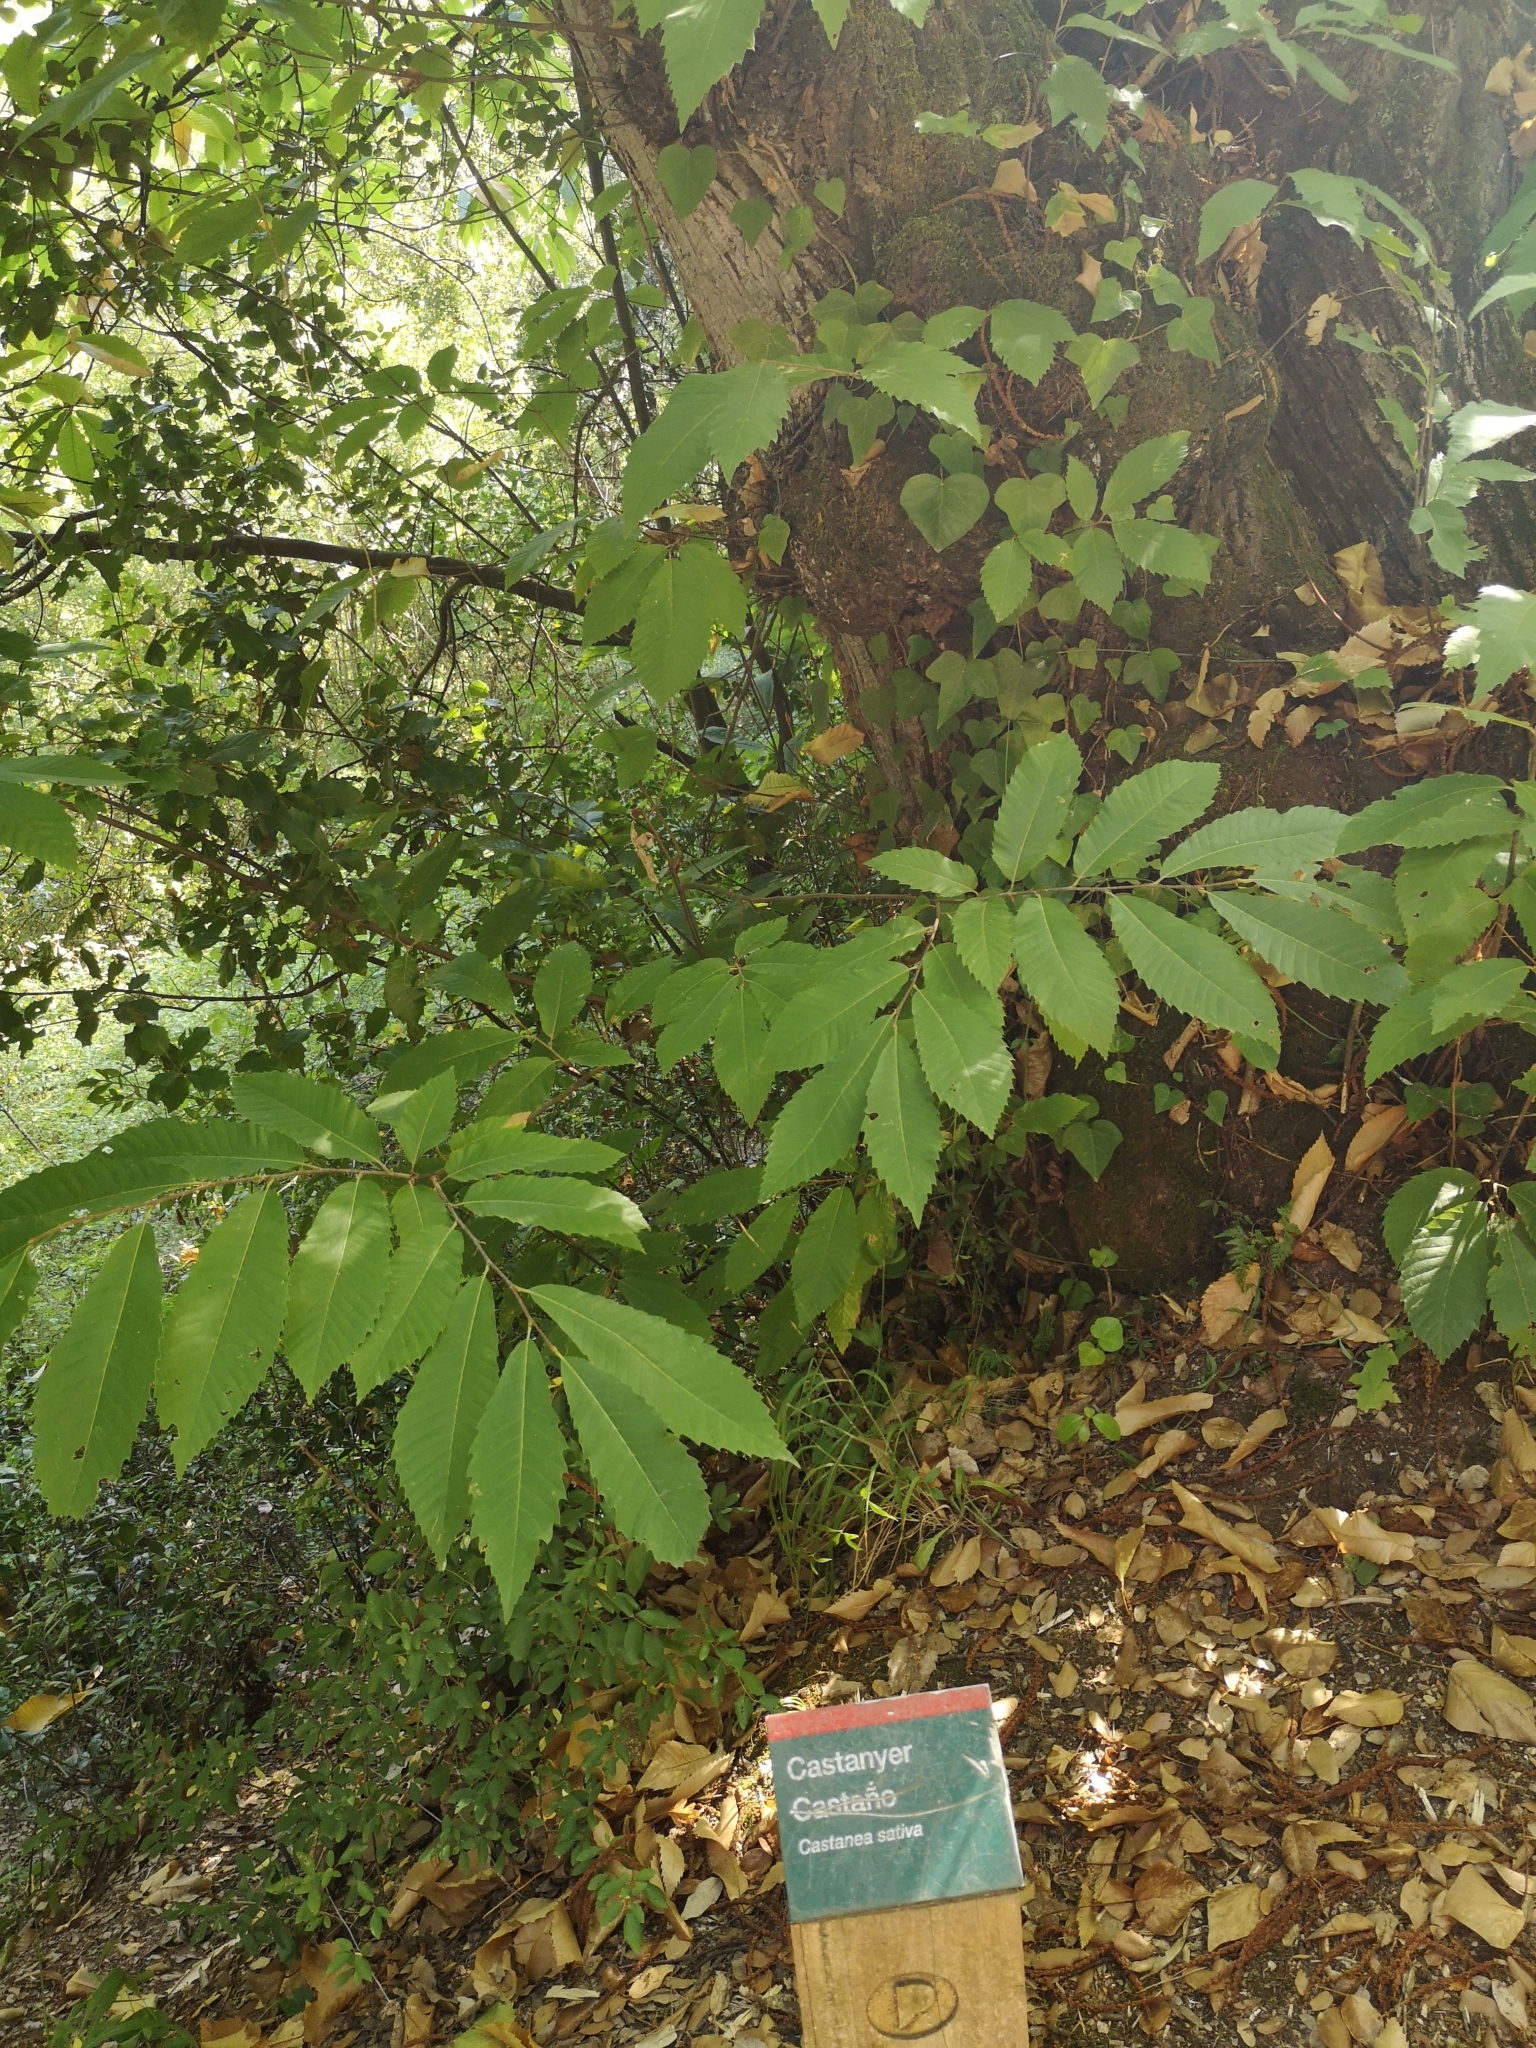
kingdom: Plantae
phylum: Tracheophyta
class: Magnoliopsida
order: Fagales
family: Fagaceae
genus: Castanea
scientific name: Castanea sativa
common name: Sweet chestnut
